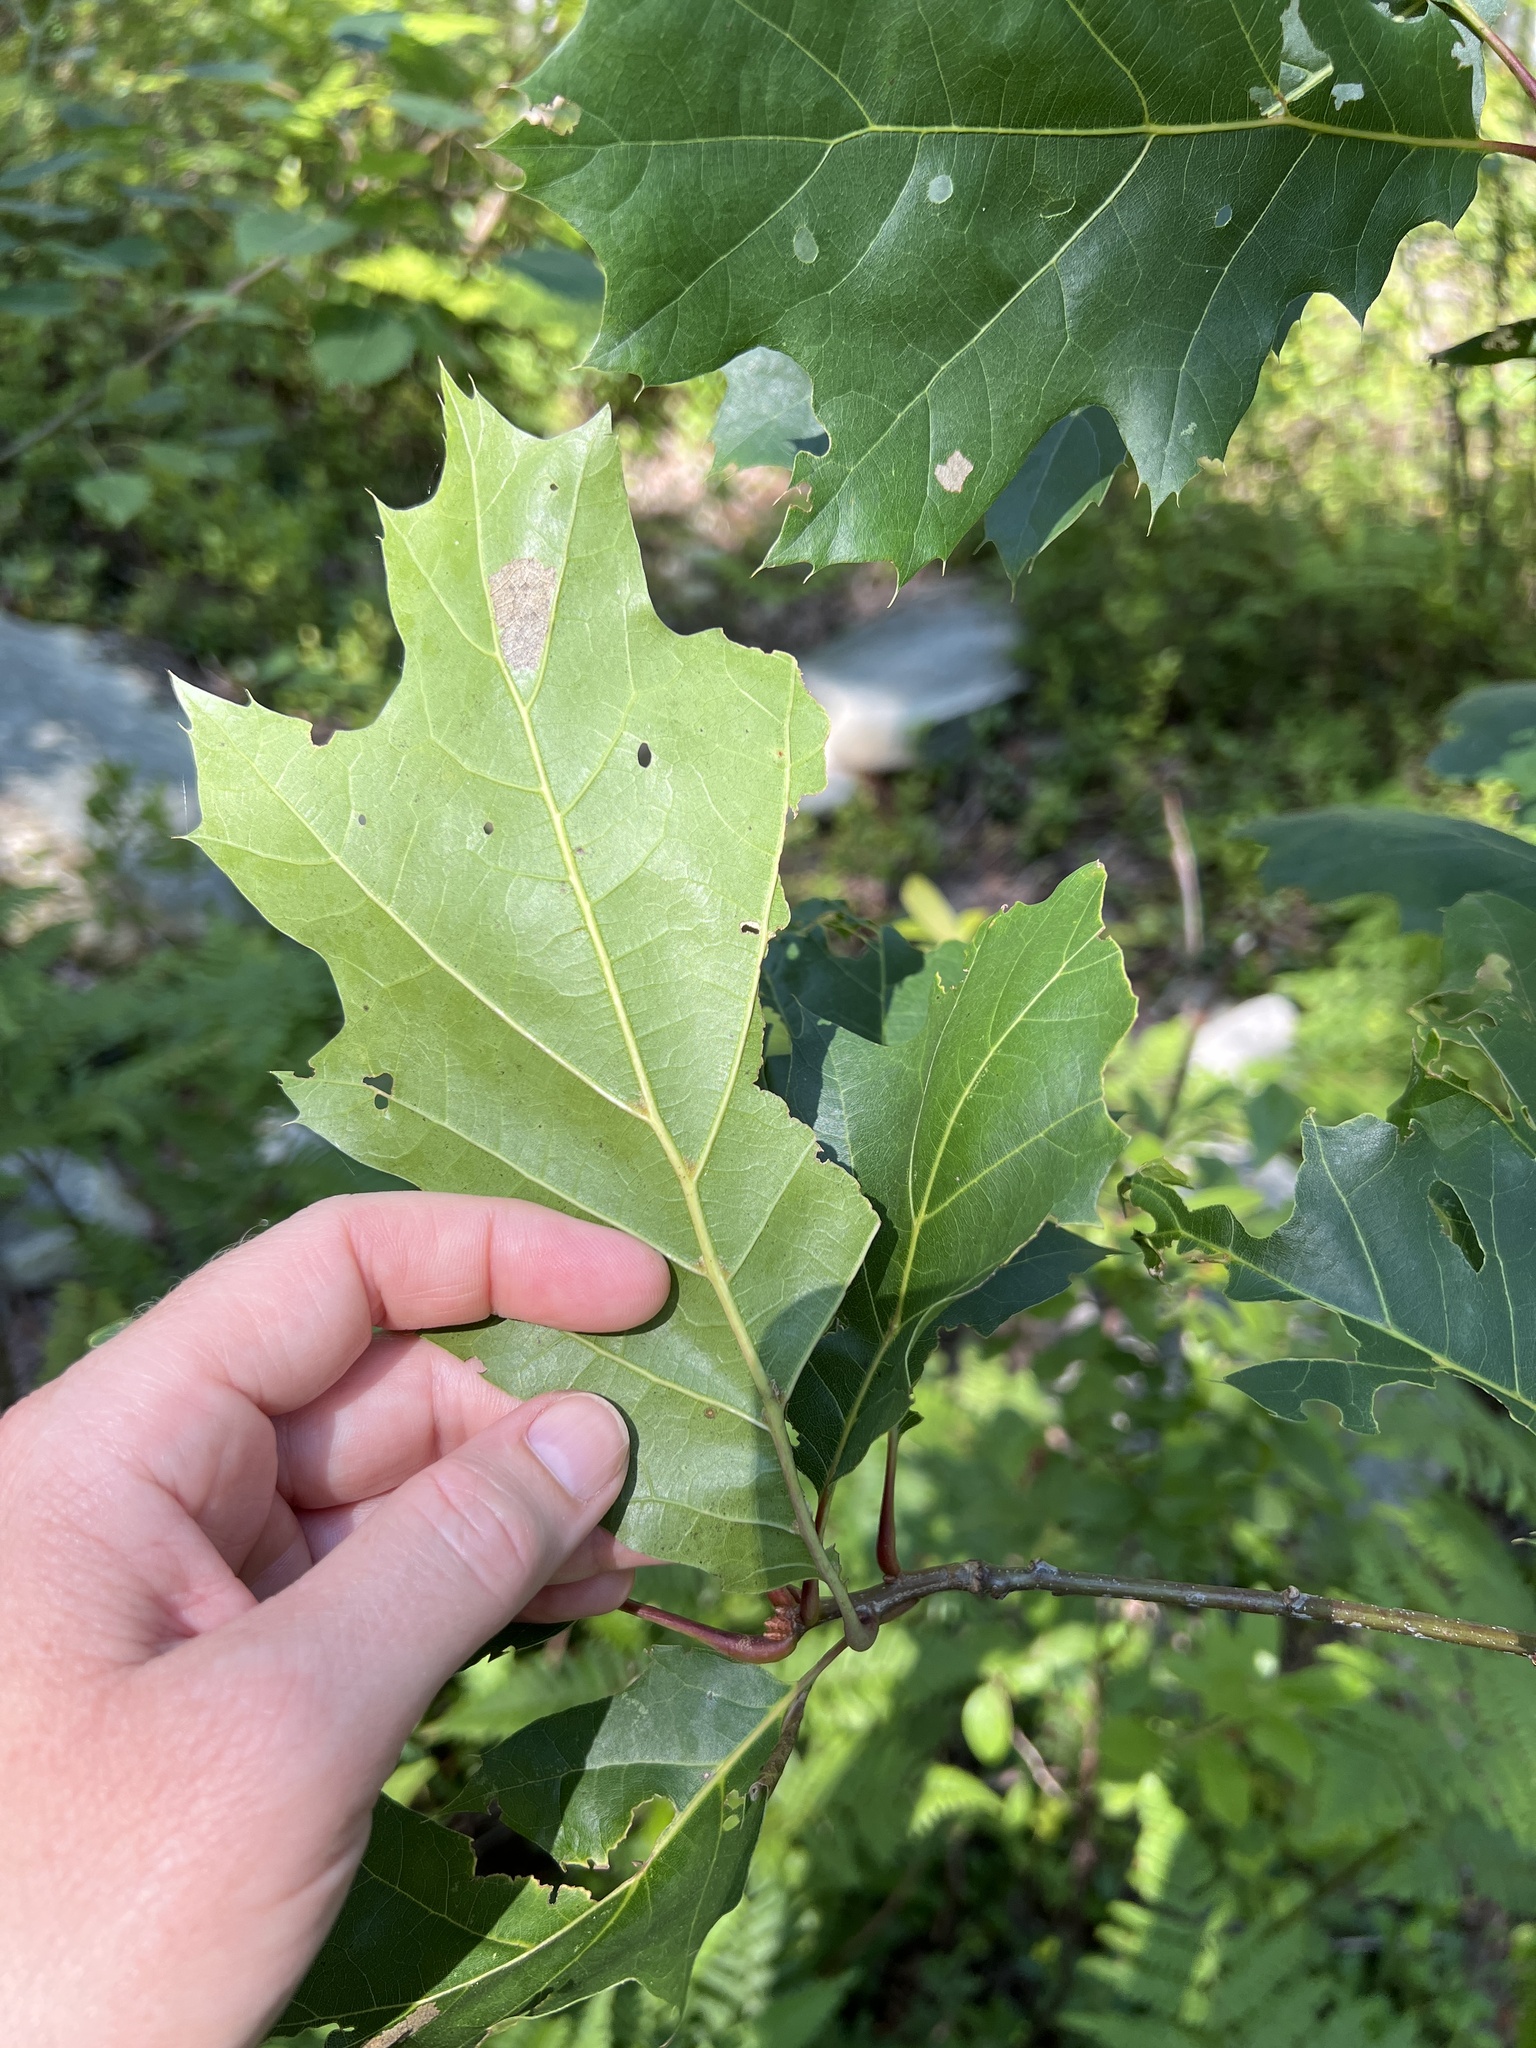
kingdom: Plantae
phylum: Tracheophyta
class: Magnoliopsida
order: Fagales
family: Fagaceae
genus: Quercus
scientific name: Quercus rubra
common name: Red oak
